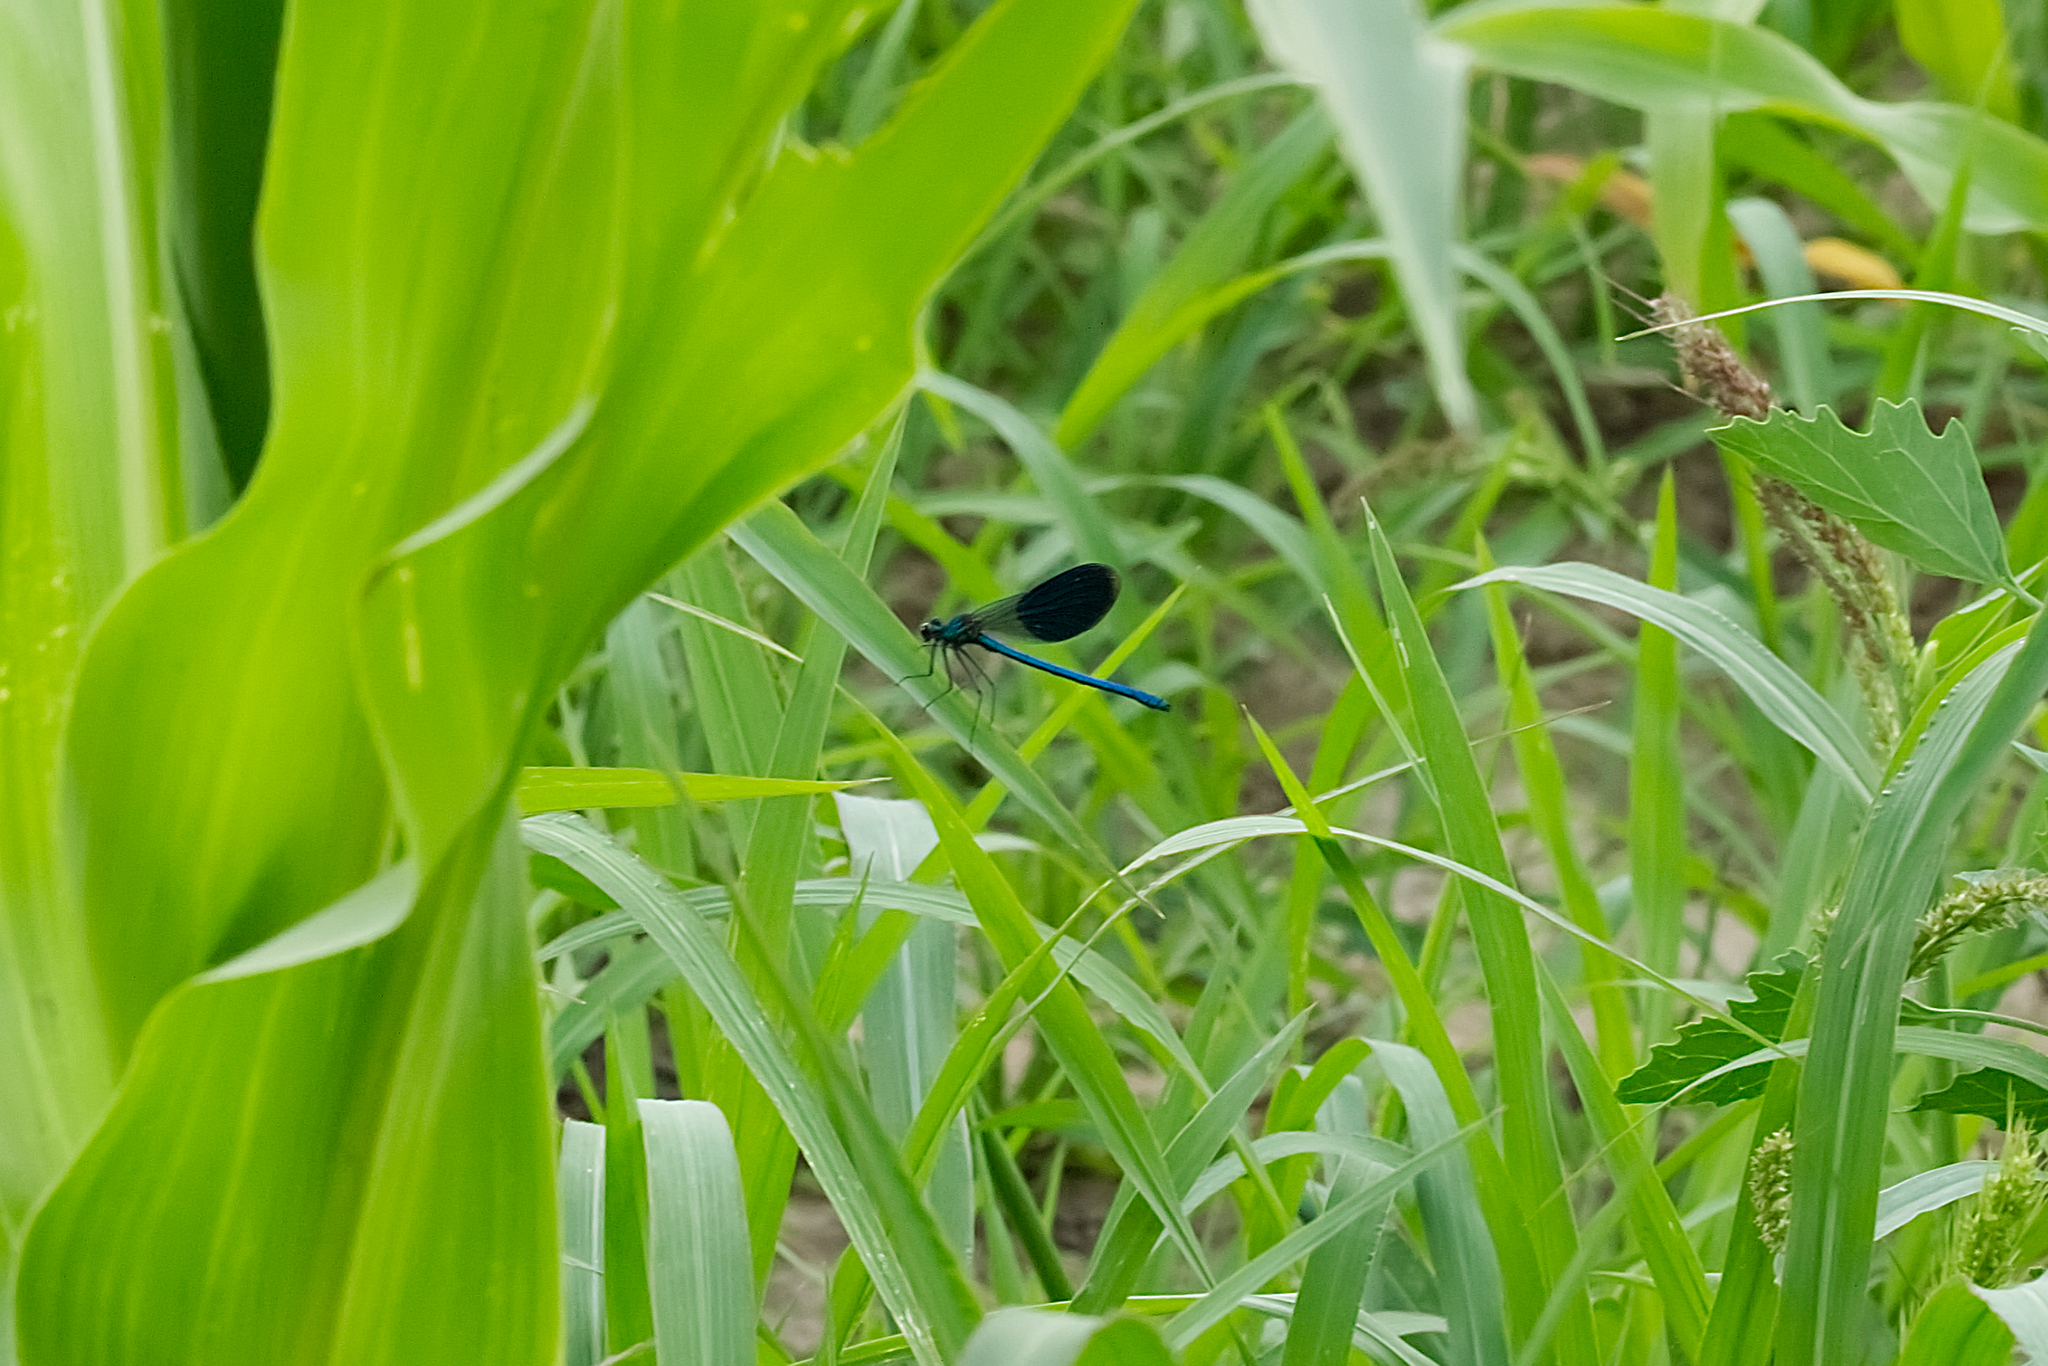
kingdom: Animalia
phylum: Arthropoda
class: Insecta
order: Odonata
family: Calopterygidae
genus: Calopteryx
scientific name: Calopteryx splendens
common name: Banded demoiselle
